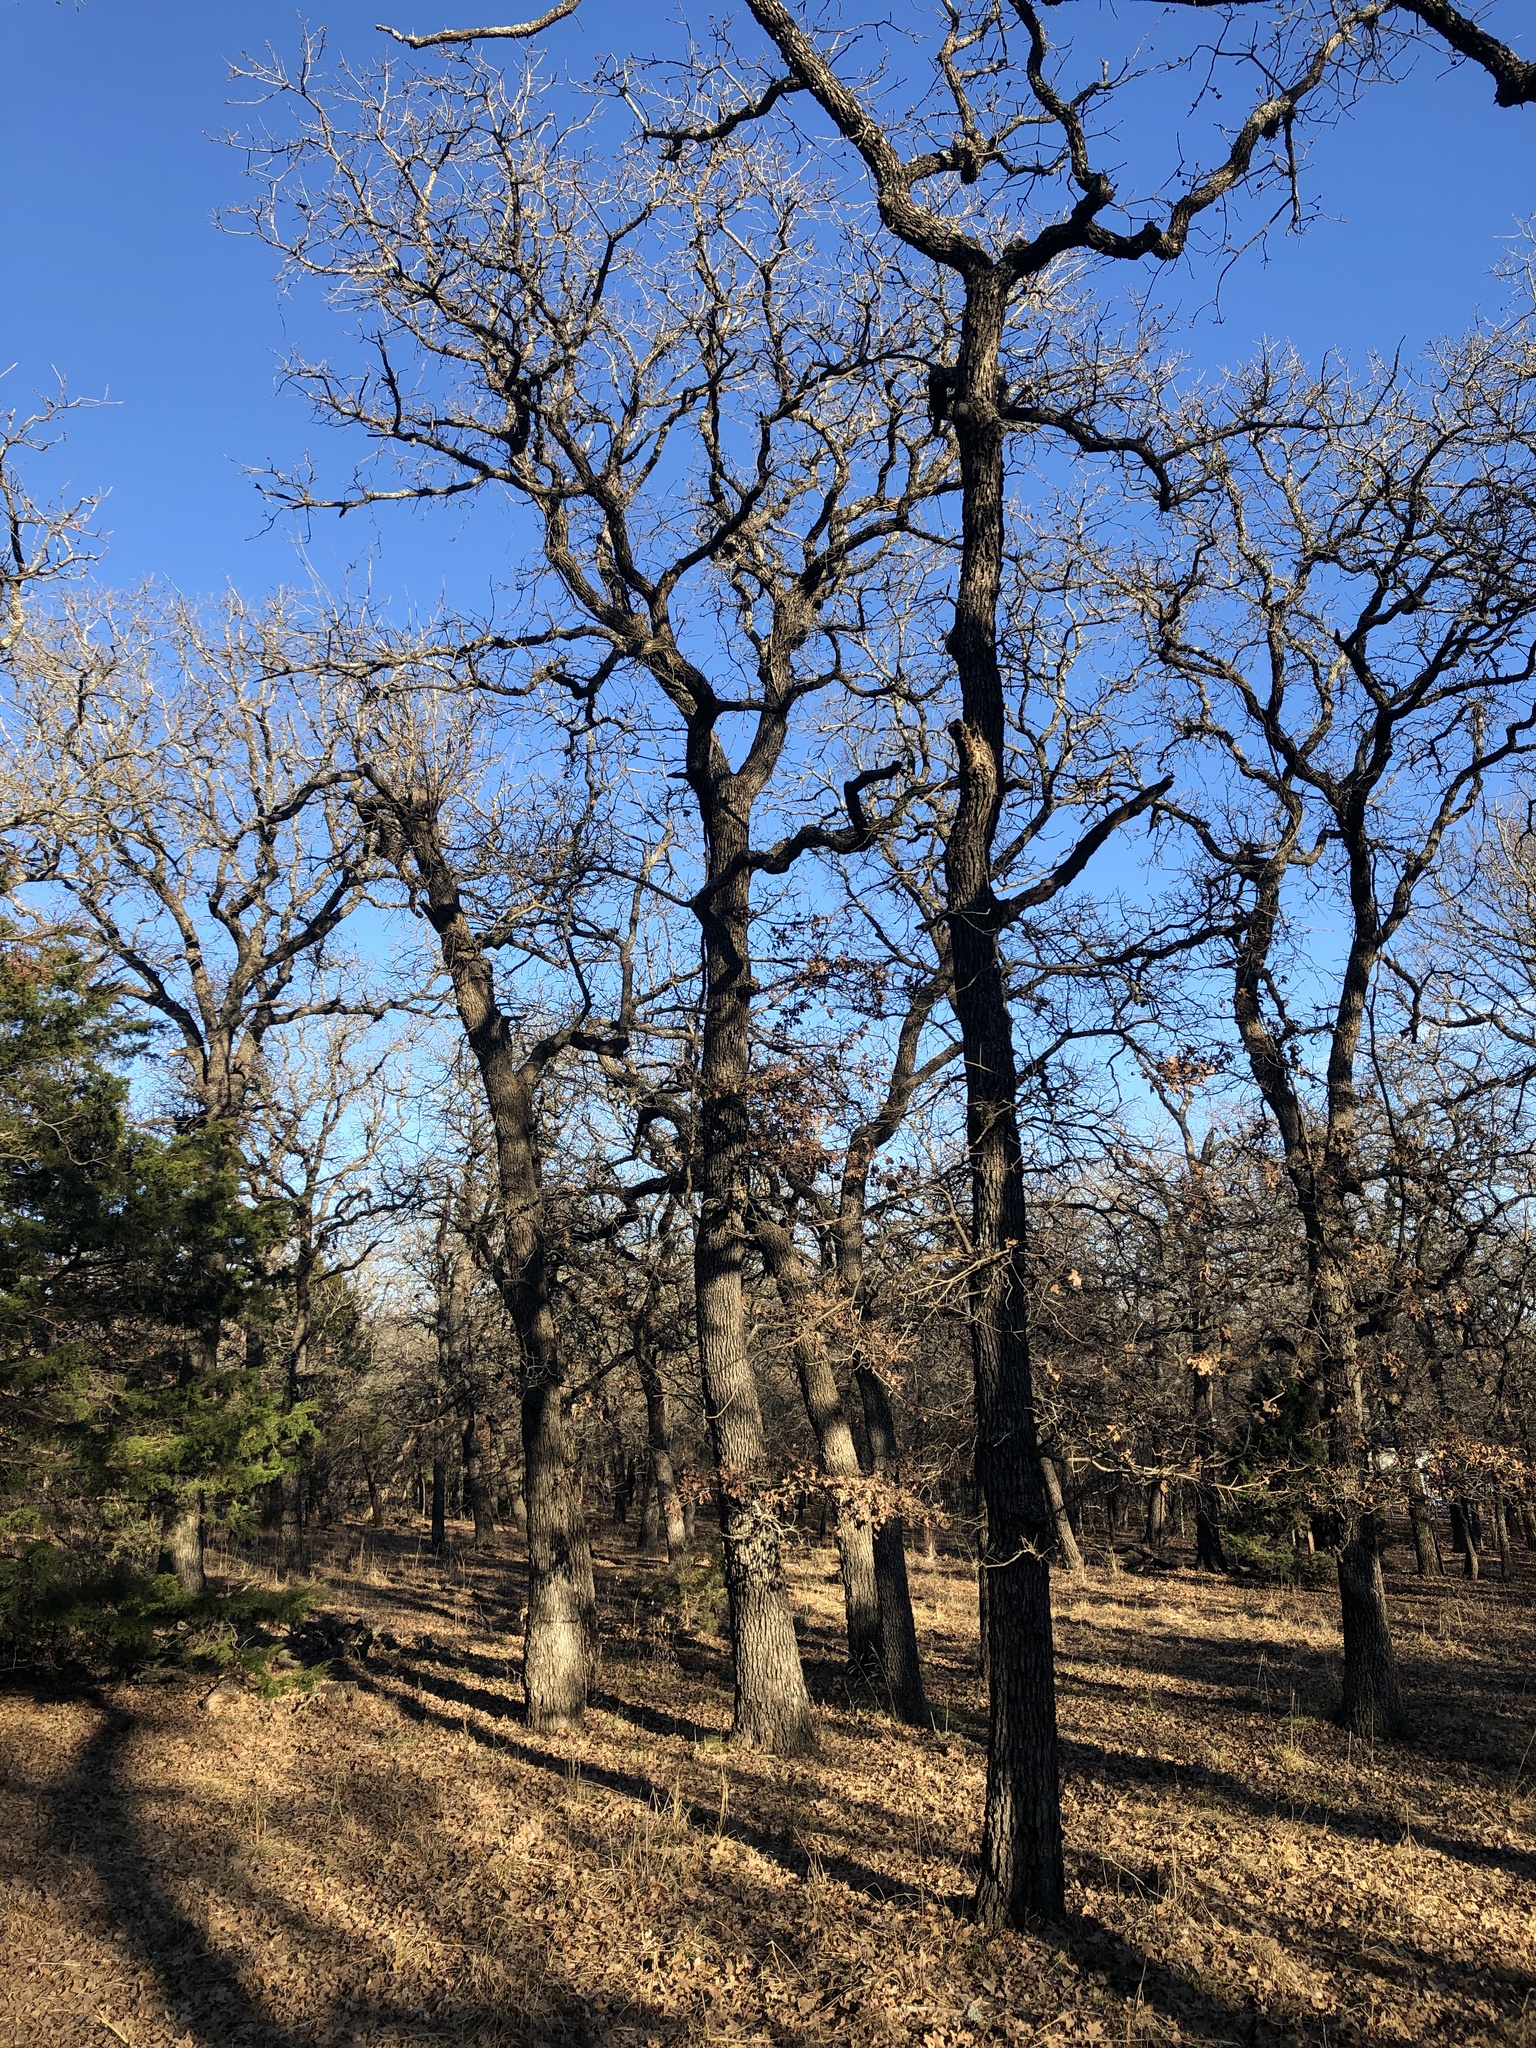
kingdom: Plantae
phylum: Tracheophyta
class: Magnoliopsida
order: Fagales
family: Fagaceae
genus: Quercus
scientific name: Quercus stellata
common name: Post oak
